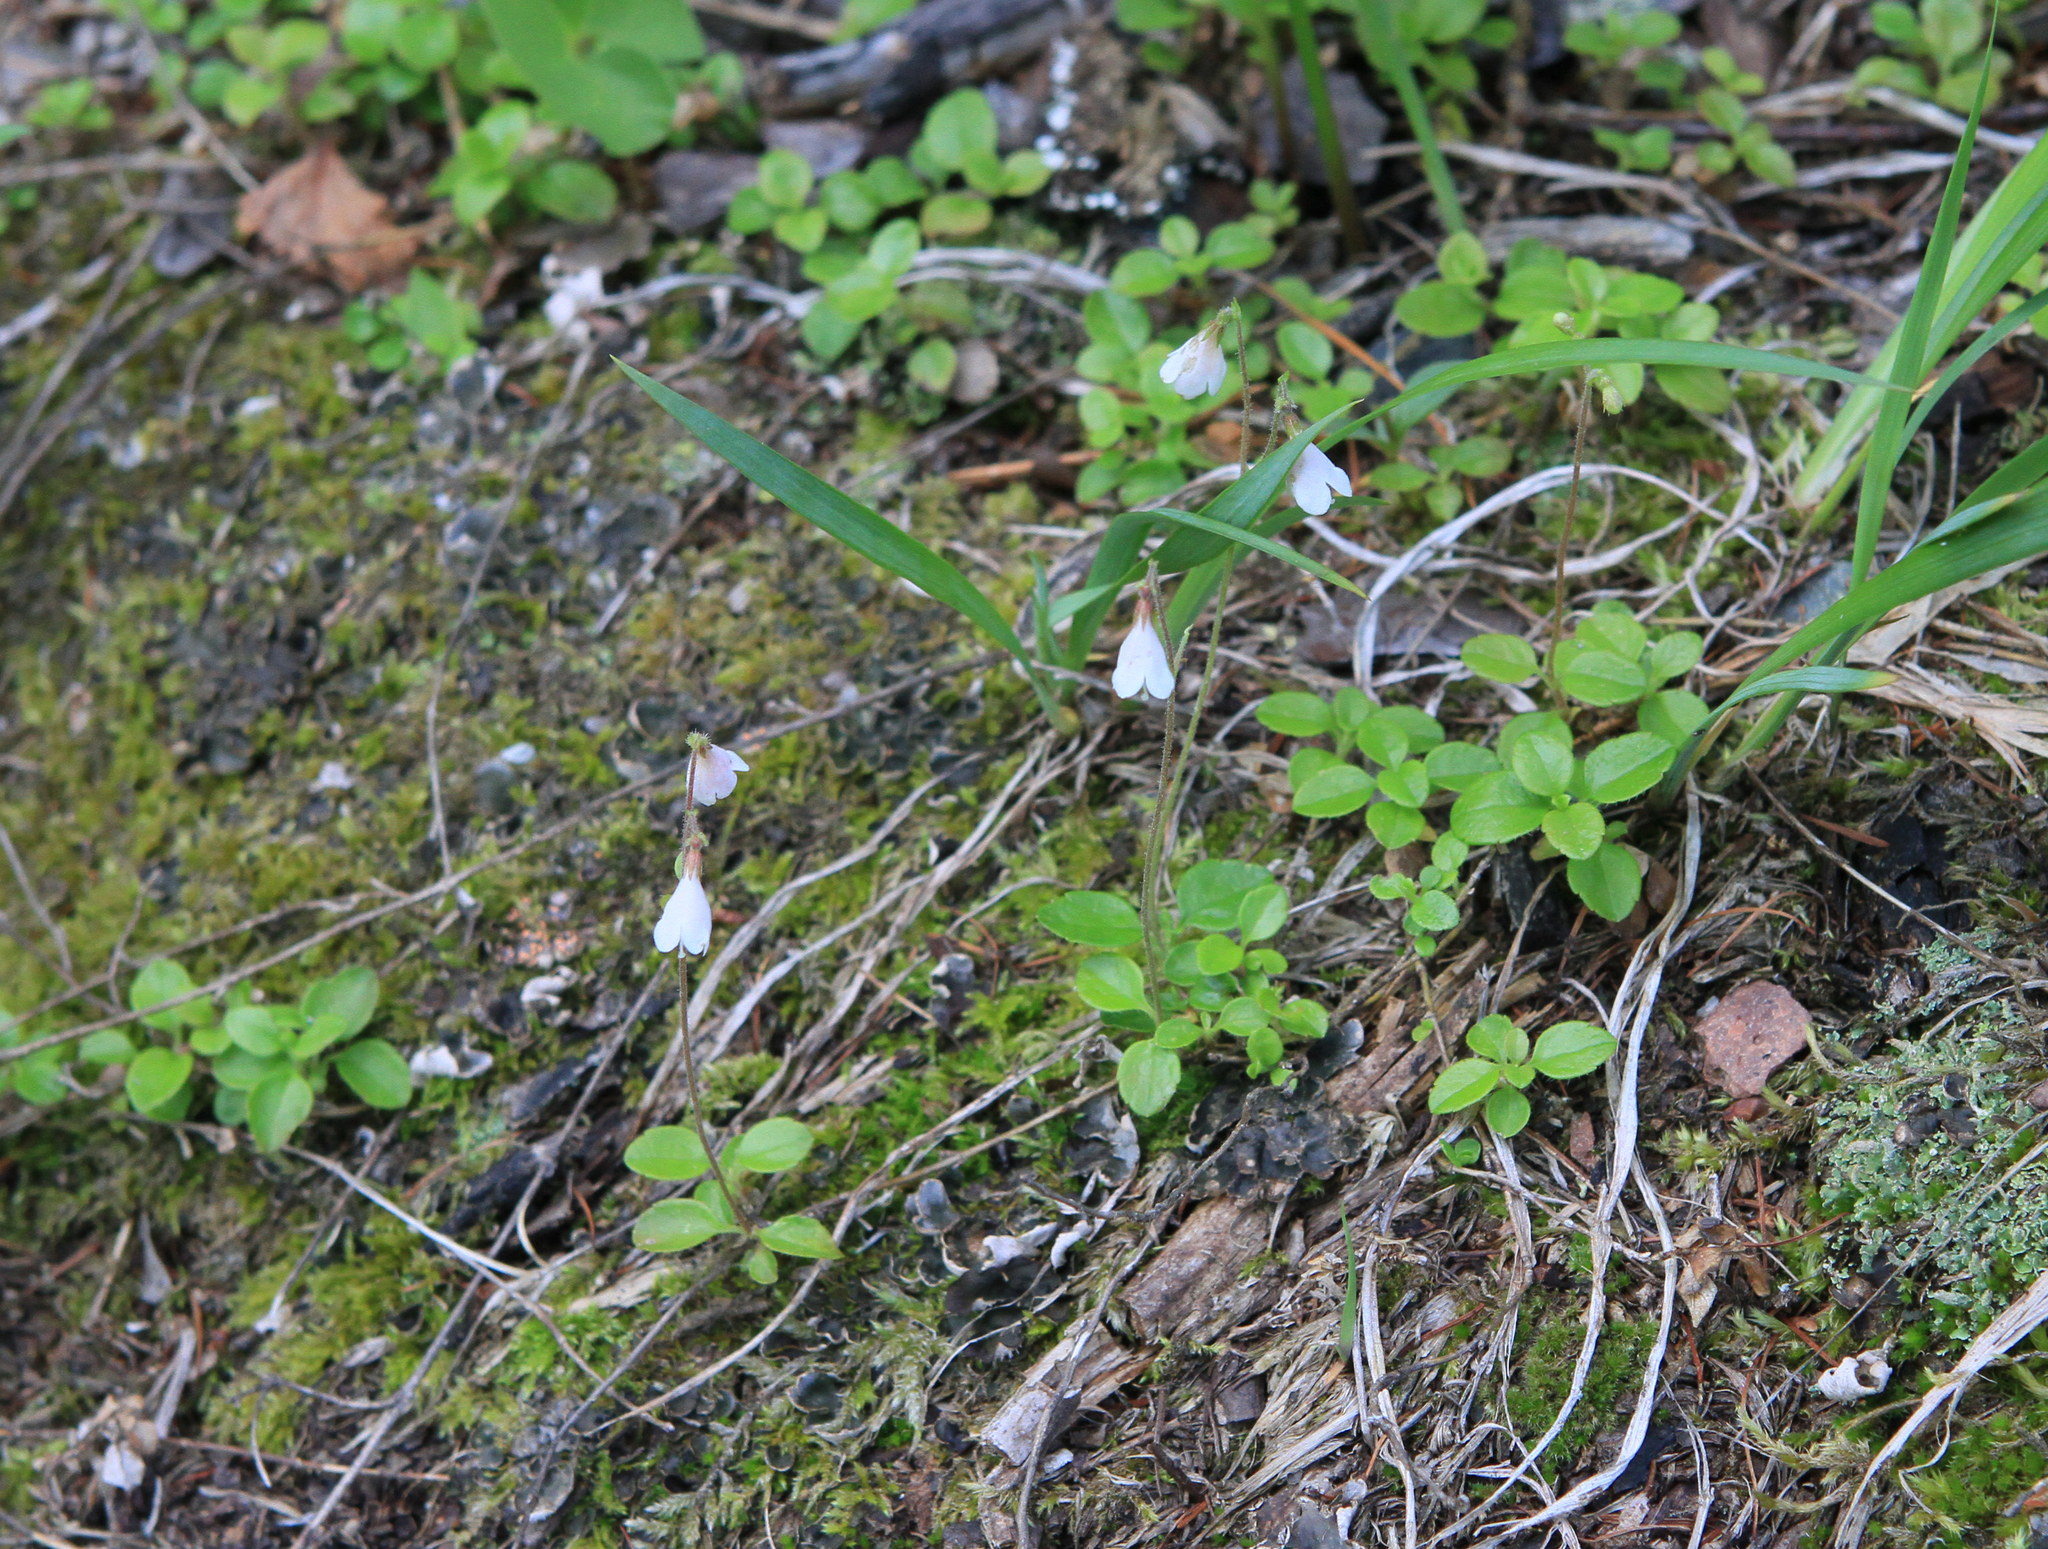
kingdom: Plantae
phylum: Tracheophyta
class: Magnoliopsida
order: Dipsacales
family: Caprifoliaceae
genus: Linnaea
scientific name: Linnaea borealis
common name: Twinflower
